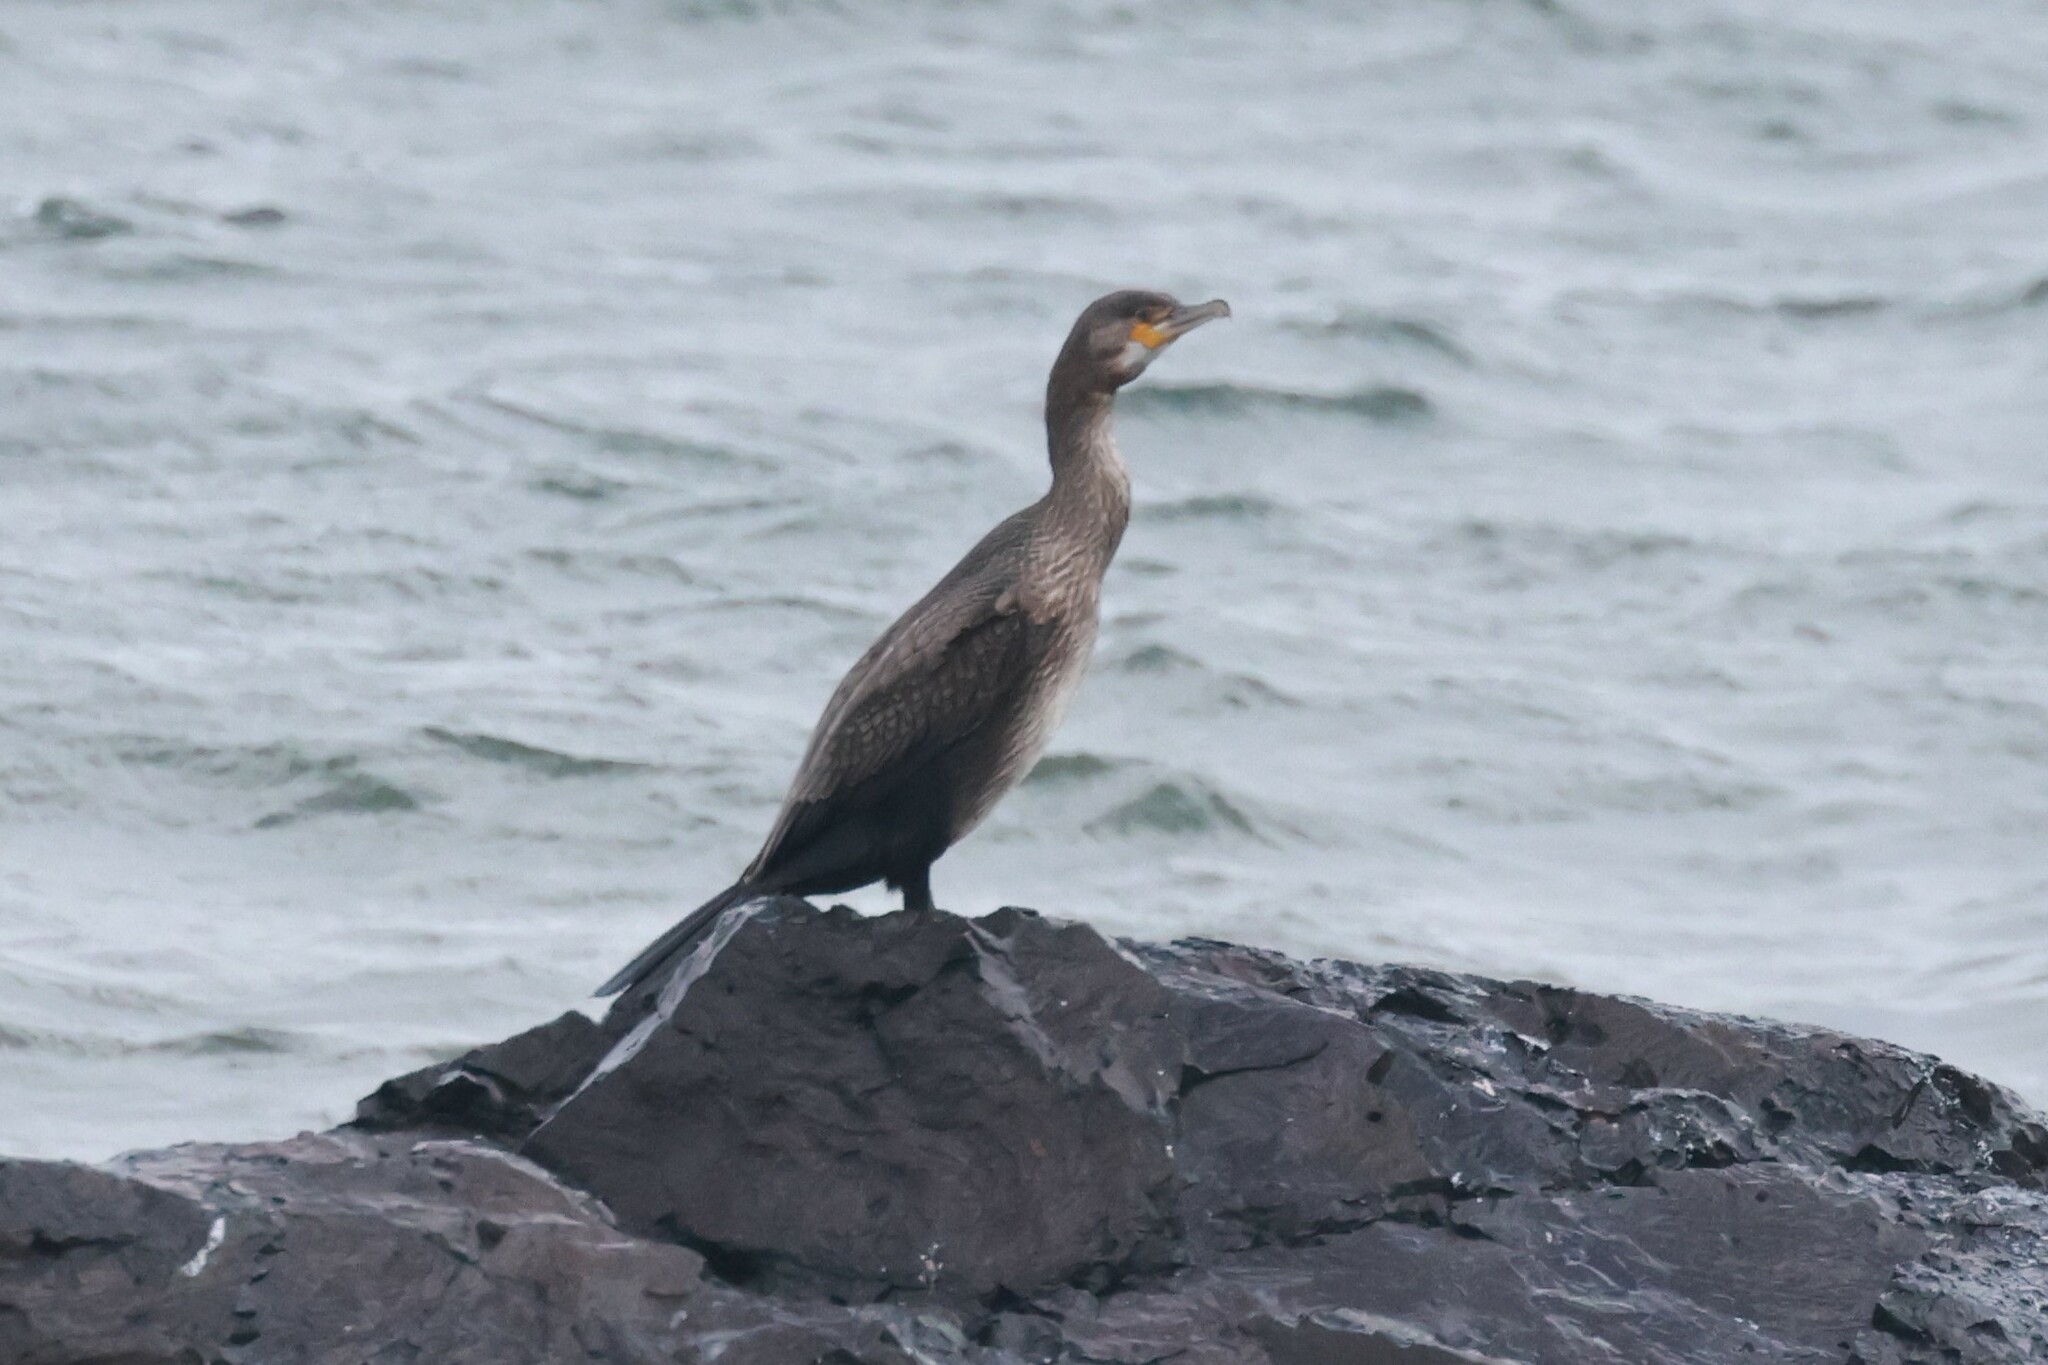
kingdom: Animalia
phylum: Chordata
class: Aves
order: Suliformes
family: Phalacrocoracidae
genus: Phalacrocorax
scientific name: Phalacrocorax carbo
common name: Great cormorant
